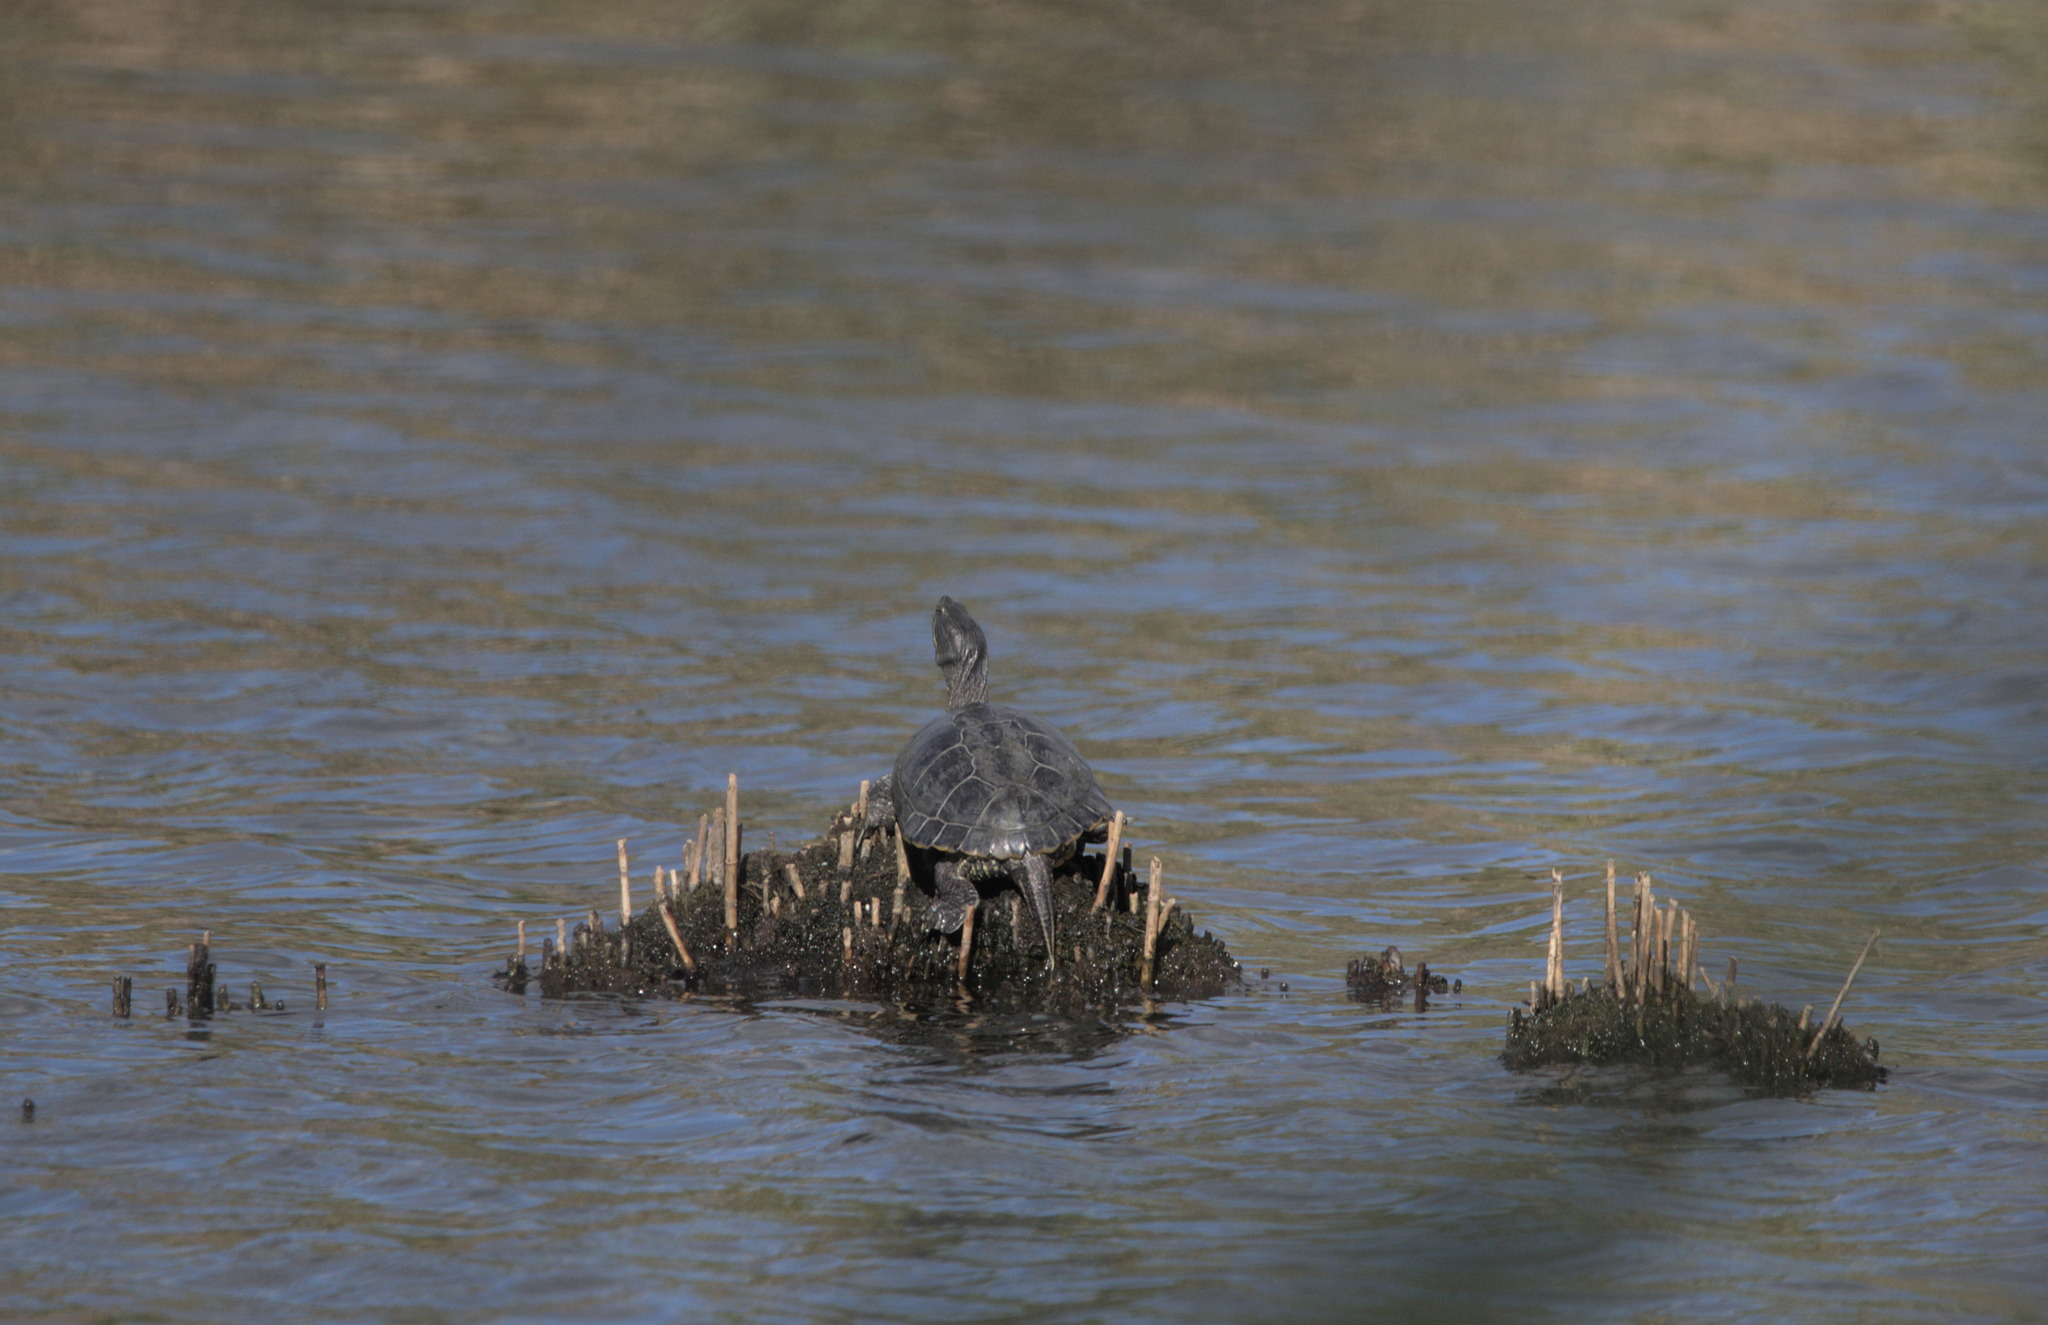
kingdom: Animalia
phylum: Chordata
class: Testudines
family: Emydidae
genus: Trachemys
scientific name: Trachemys scripta
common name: Slider
